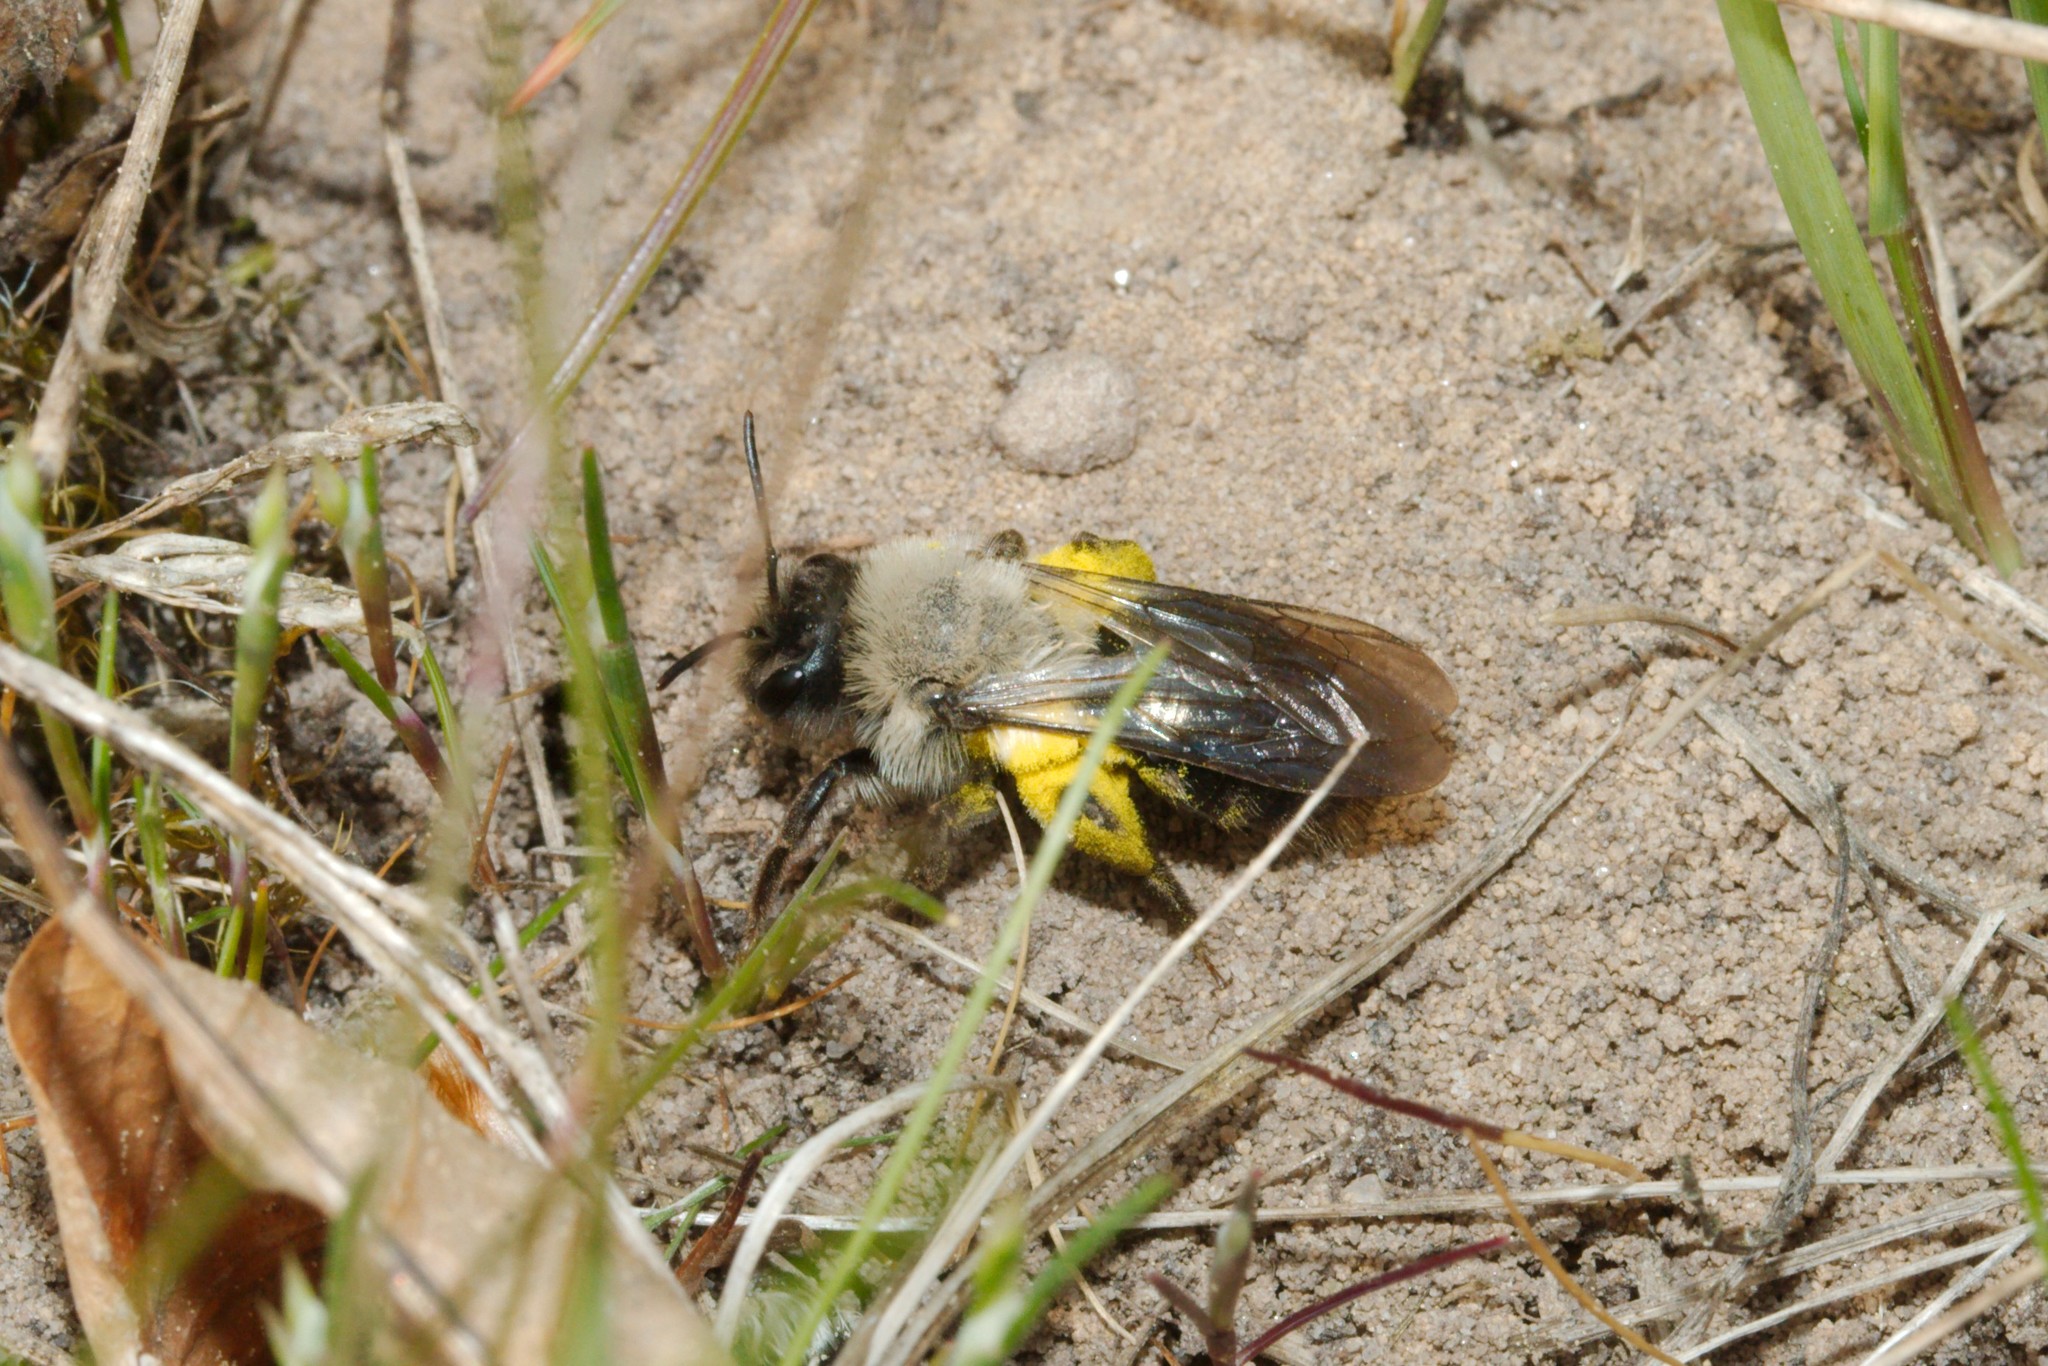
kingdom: Animalia
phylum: Arthropoda
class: Insecta
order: Hymenoptera
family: Andrenidae
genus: Andrena
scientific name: Andrena vaga
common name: Grey-backed mining bee
